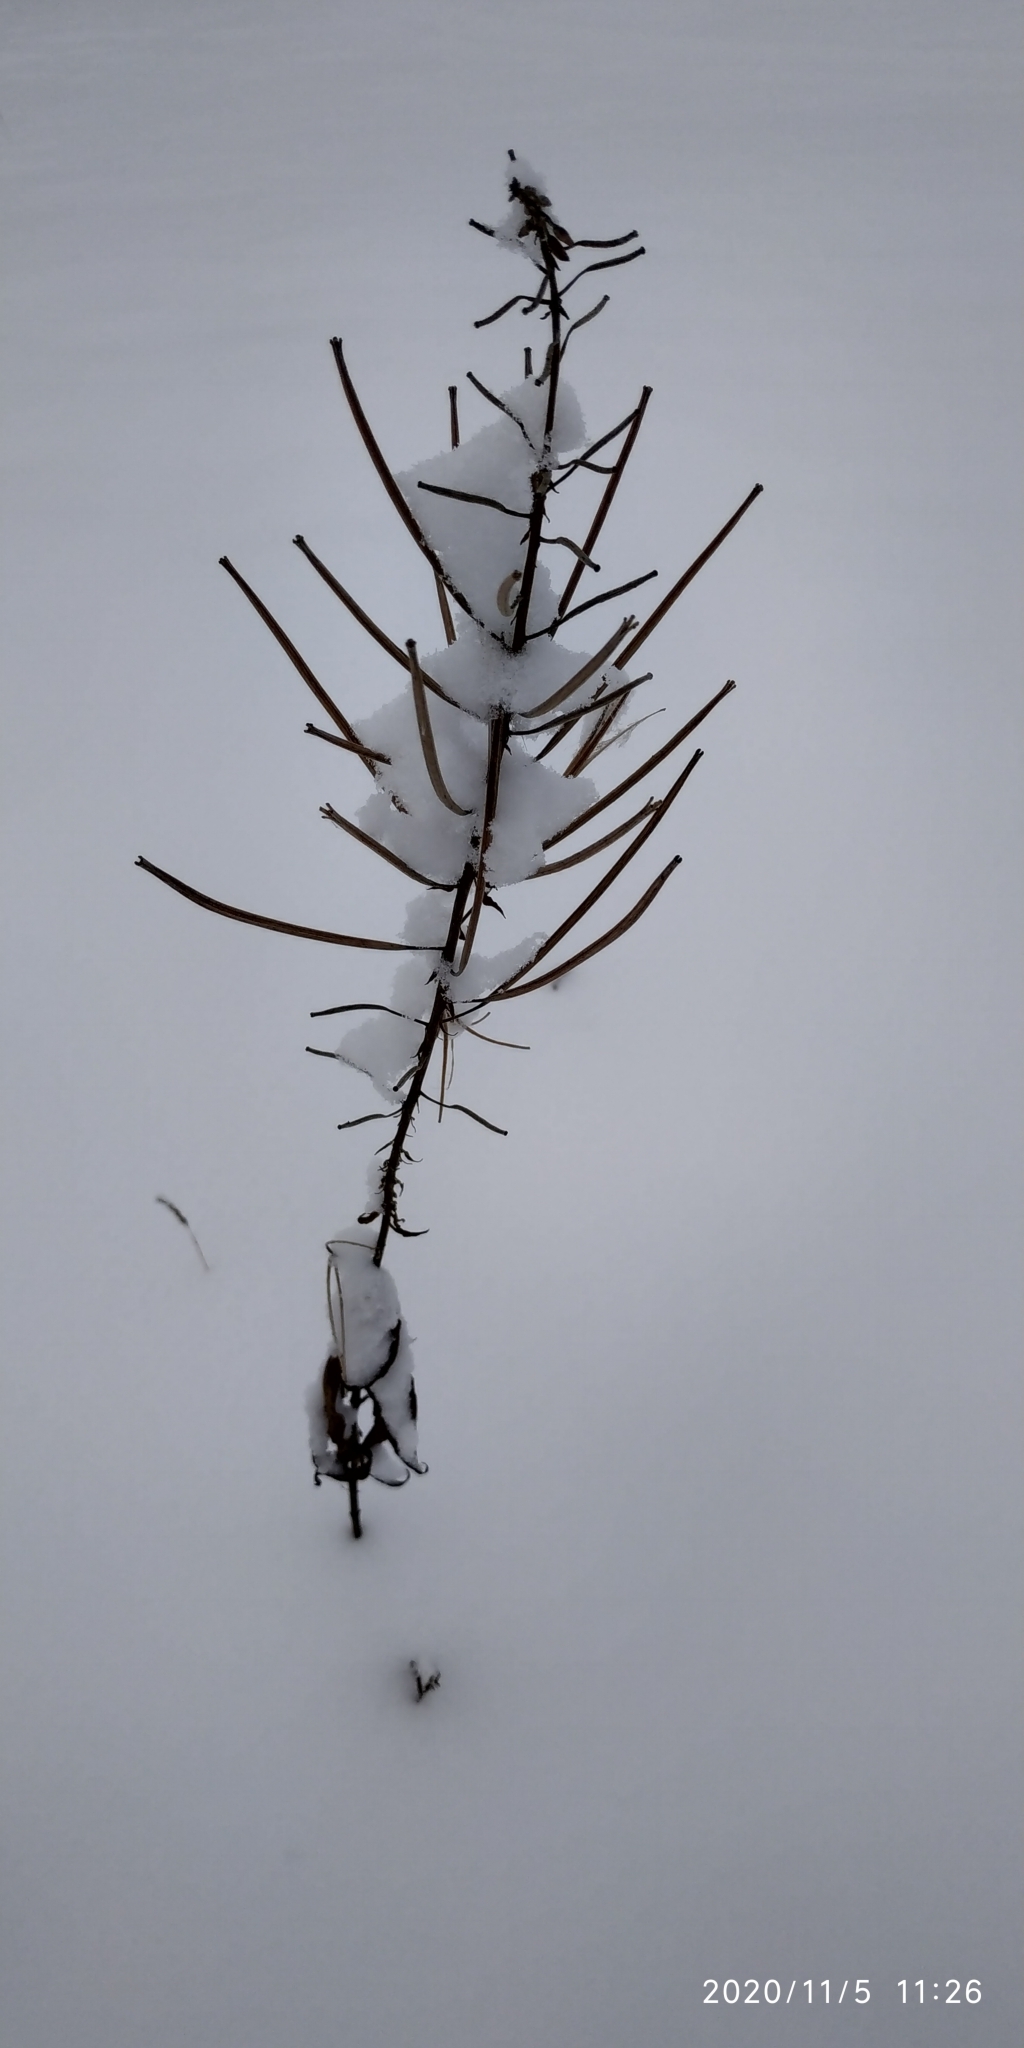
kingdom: Plantae
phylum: Tracheophyta
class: Magnoliopsida
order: Myrtales
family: Onagraceae
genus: Chamaenerion
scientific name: Chamaenerion angustifolium
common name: Fireweed
